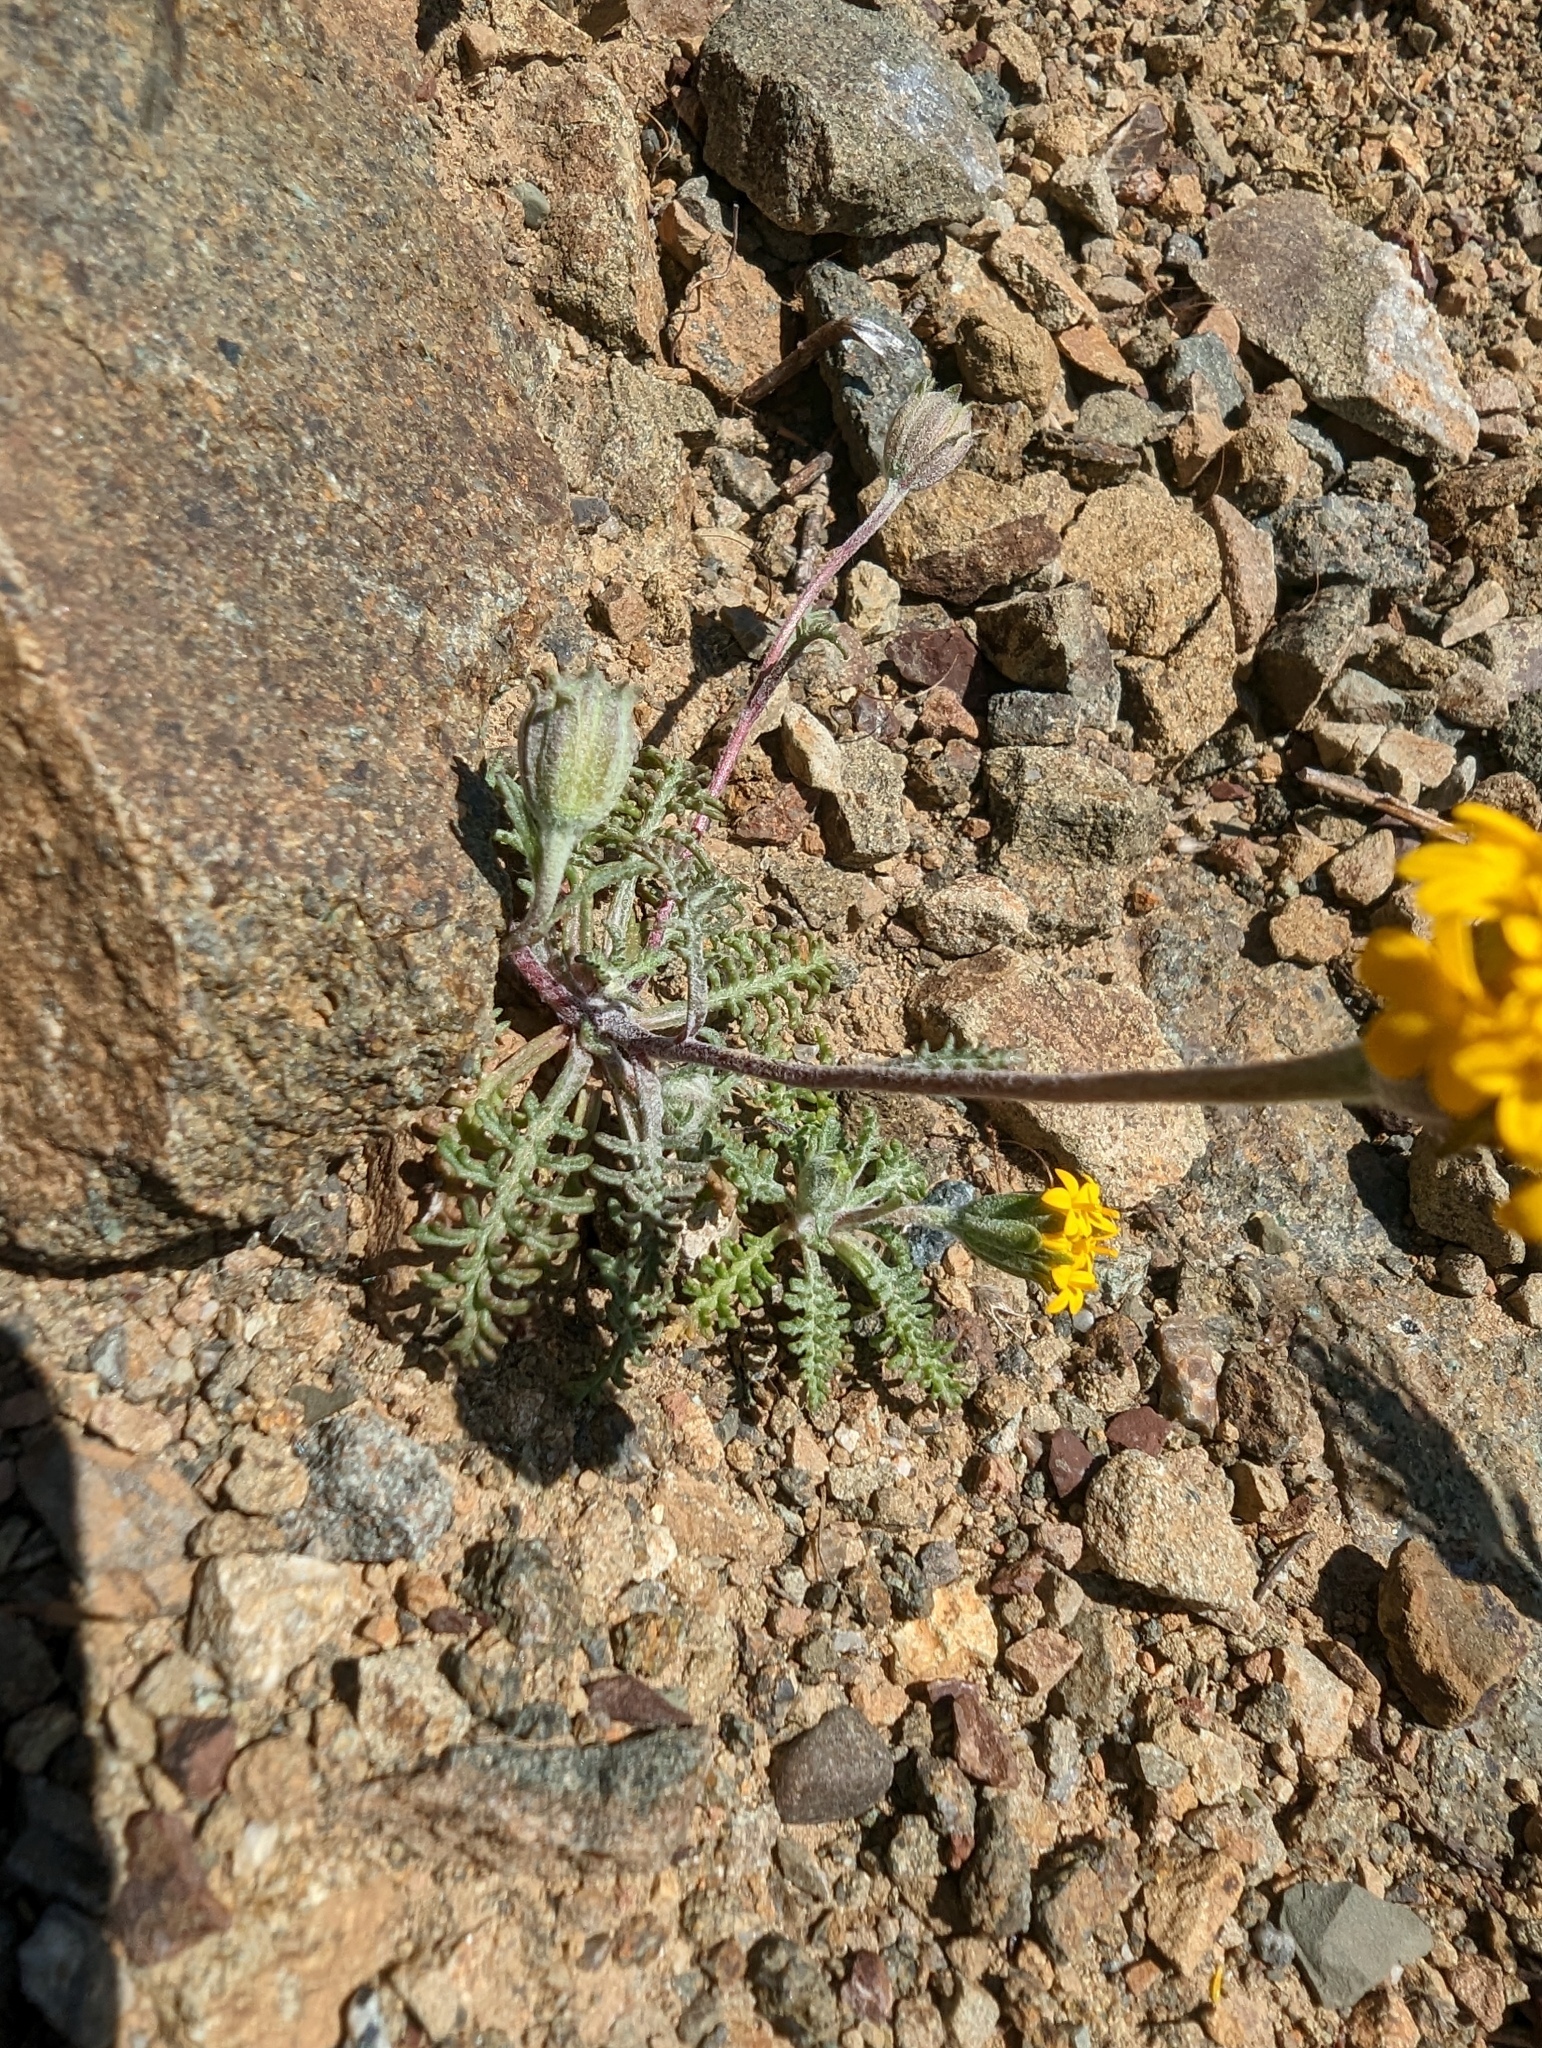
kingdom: Plantae
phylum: Tracheophyta
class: Magnoliopsida
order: Asterales
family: Asteraceae
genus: Chaenactis
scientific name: Chaenactis glabriuscula
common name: Yellow pincushion
